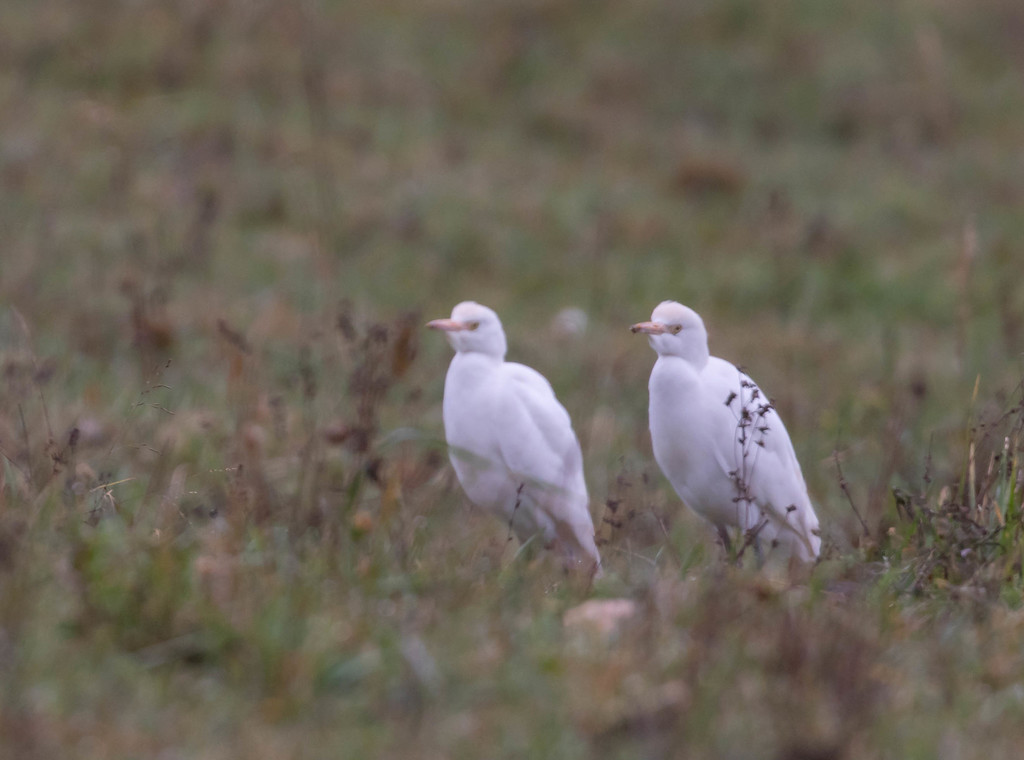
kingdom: Animalia
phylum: Chordata
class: Aves
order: Pelecaniformes
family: Ardeidae
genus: Bubulcus
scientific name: Bubulcus ibis
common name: Cattle egret
